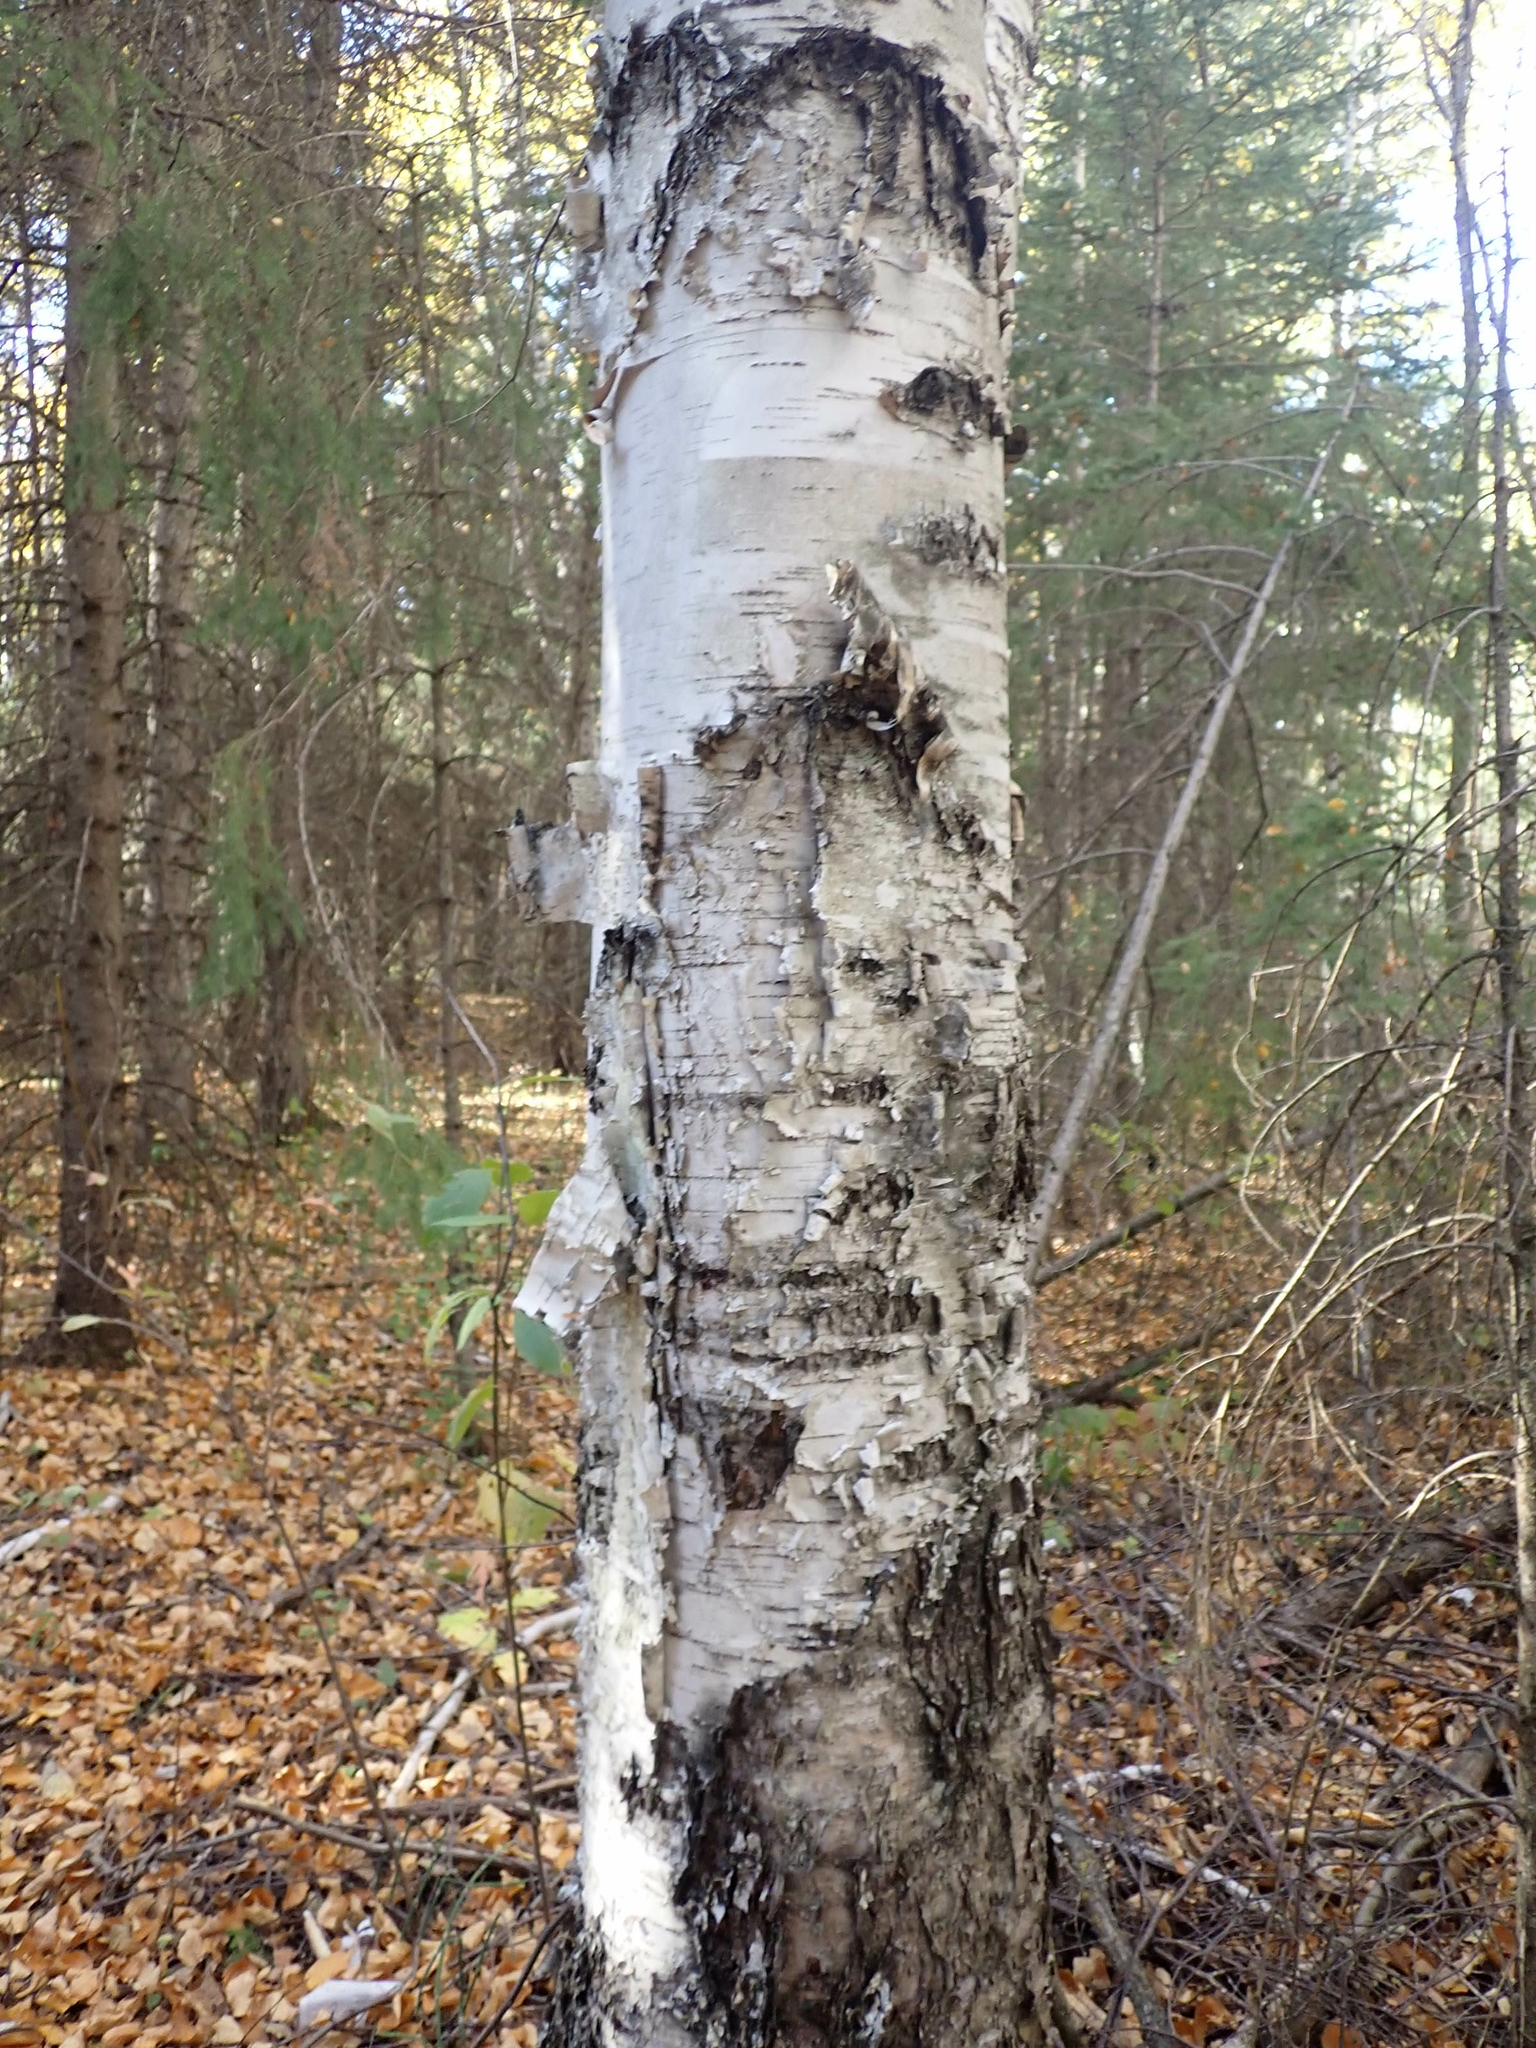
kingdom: Plantae
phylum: Tracheophyta
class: Magnoliopsida
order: Fagales
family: Betulaceae
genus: Betula
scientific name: Betula papyrifera
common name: Paper birch
